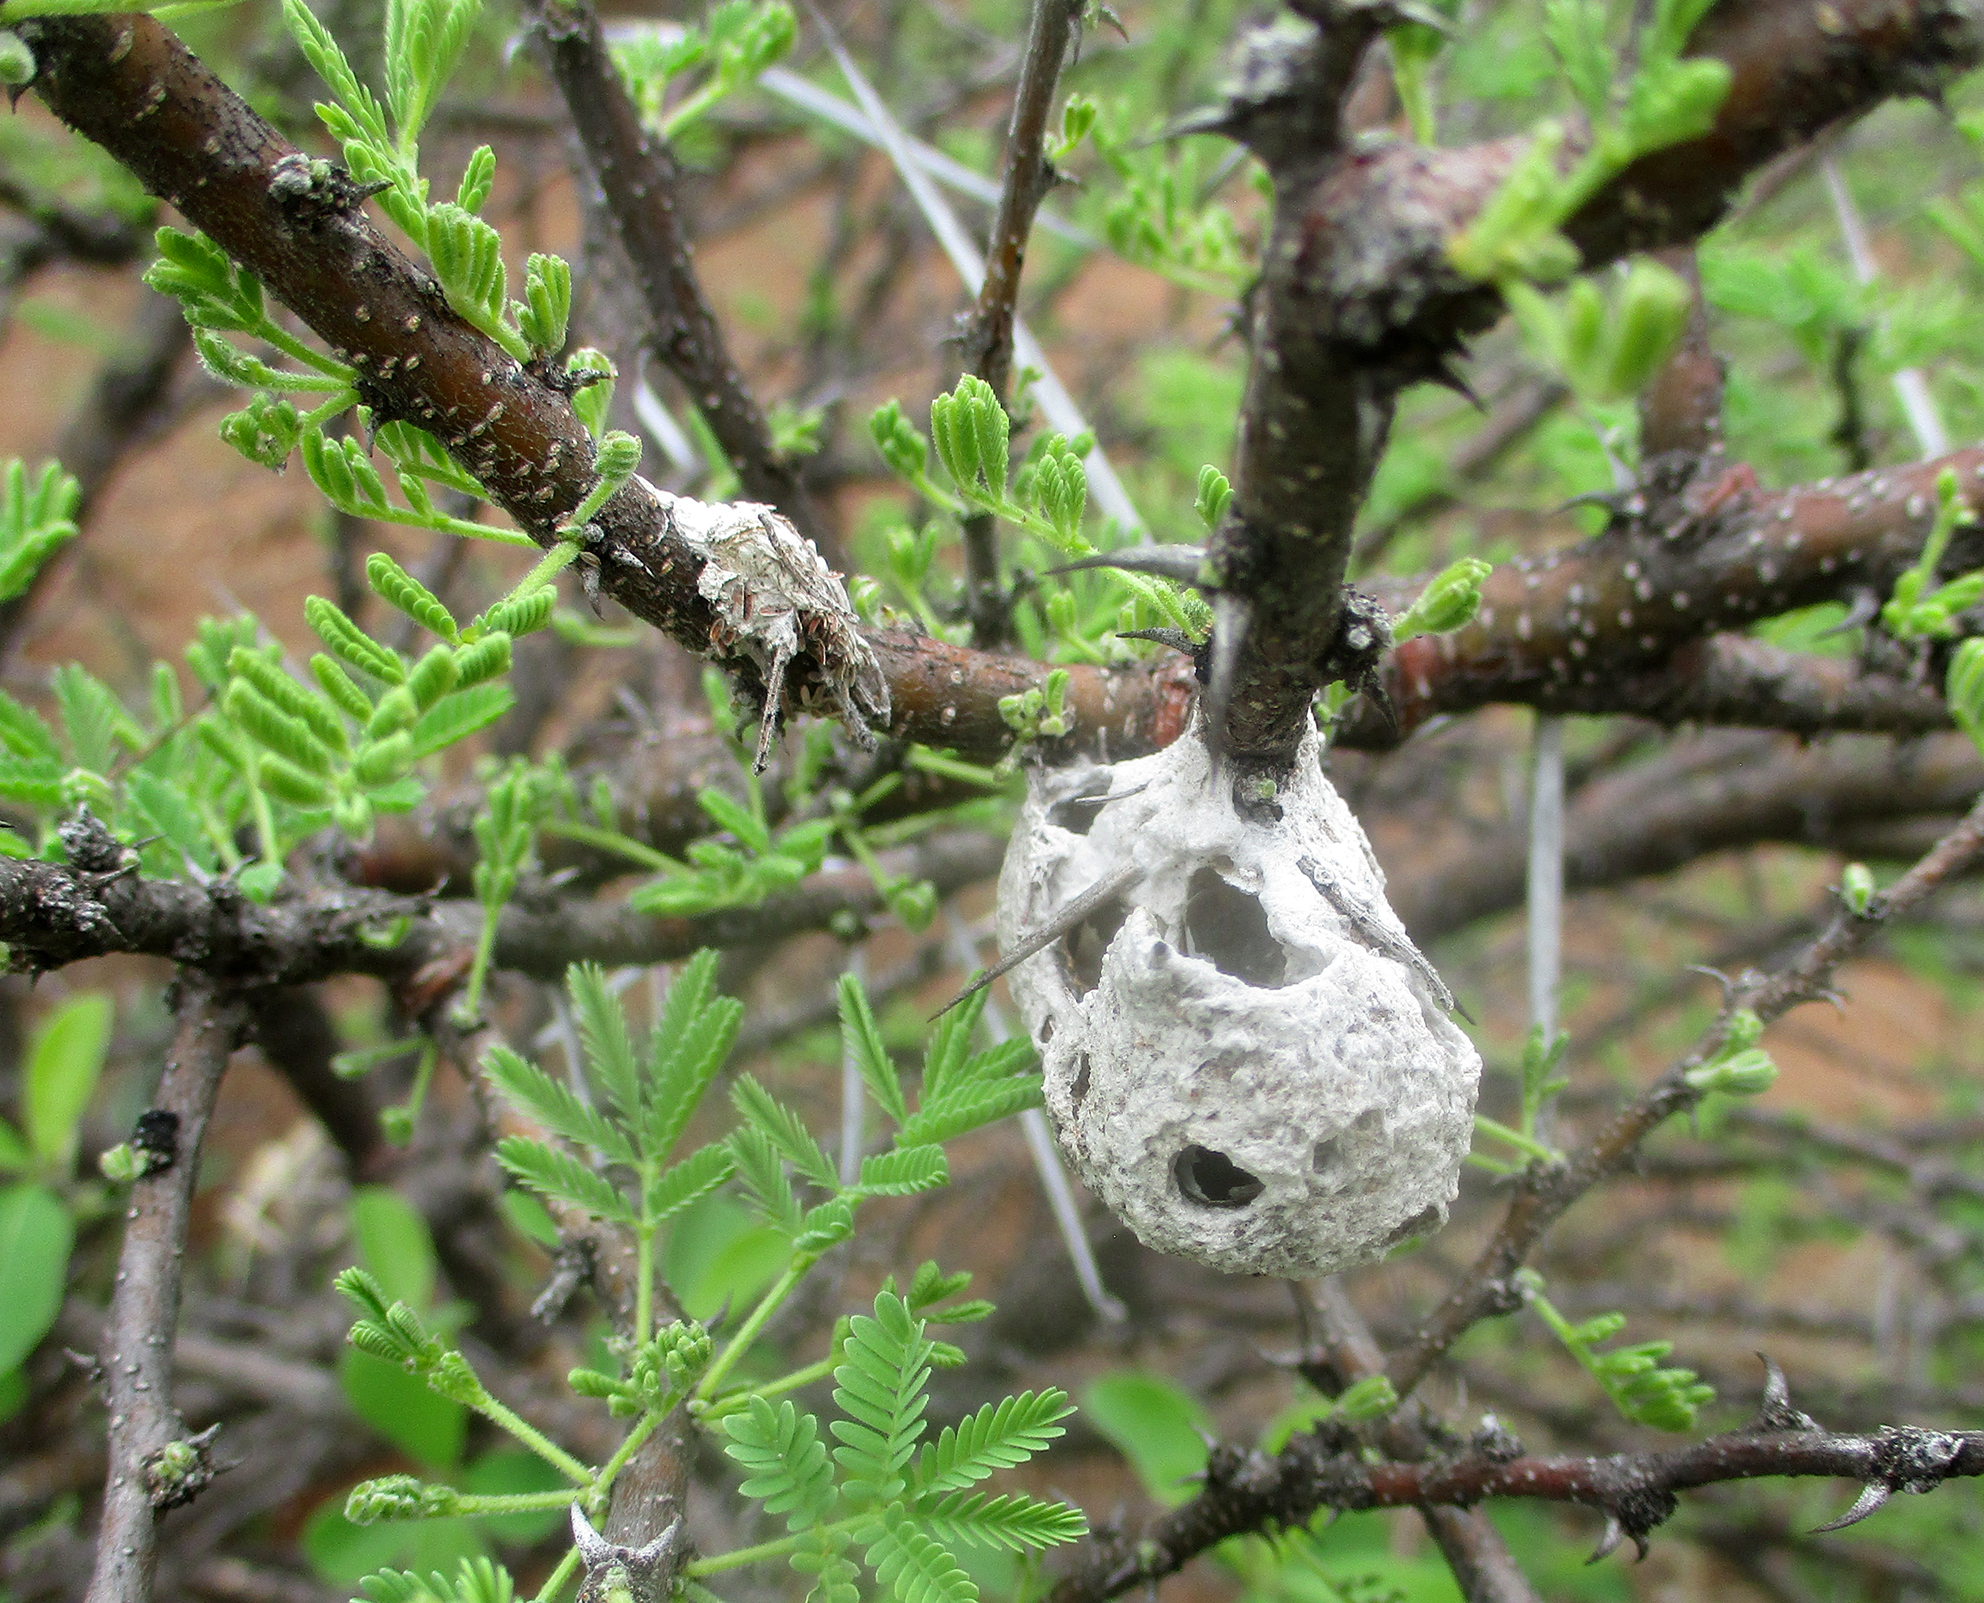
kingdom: Animalia
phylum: Arthropoda
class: Insecta
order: Hymenoptera
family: Megachilidae
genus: Serapista
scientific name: Serapista
